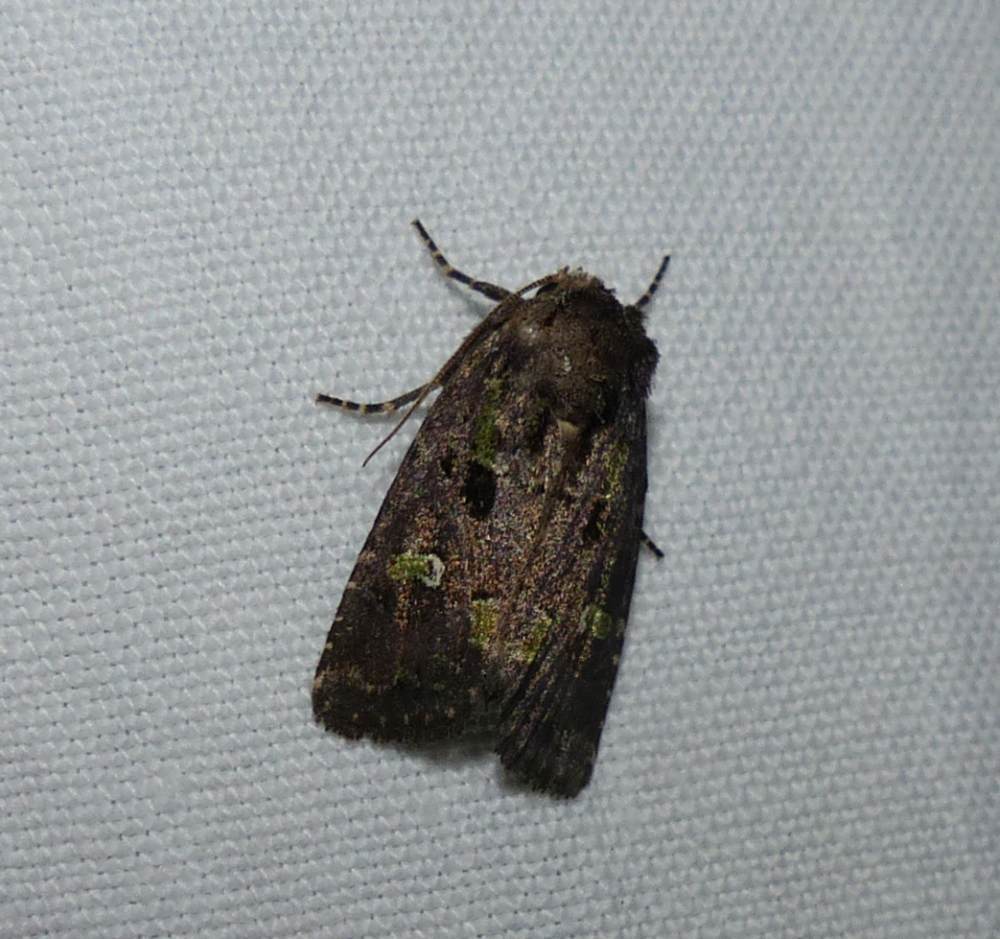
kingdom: Animalia
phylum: Arthropoda
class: Insecta
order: Lepidoptera
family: Noctuidae
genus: Lacinipolia
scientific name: Lacinipolia renigera
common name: Kidney-spotted minor
